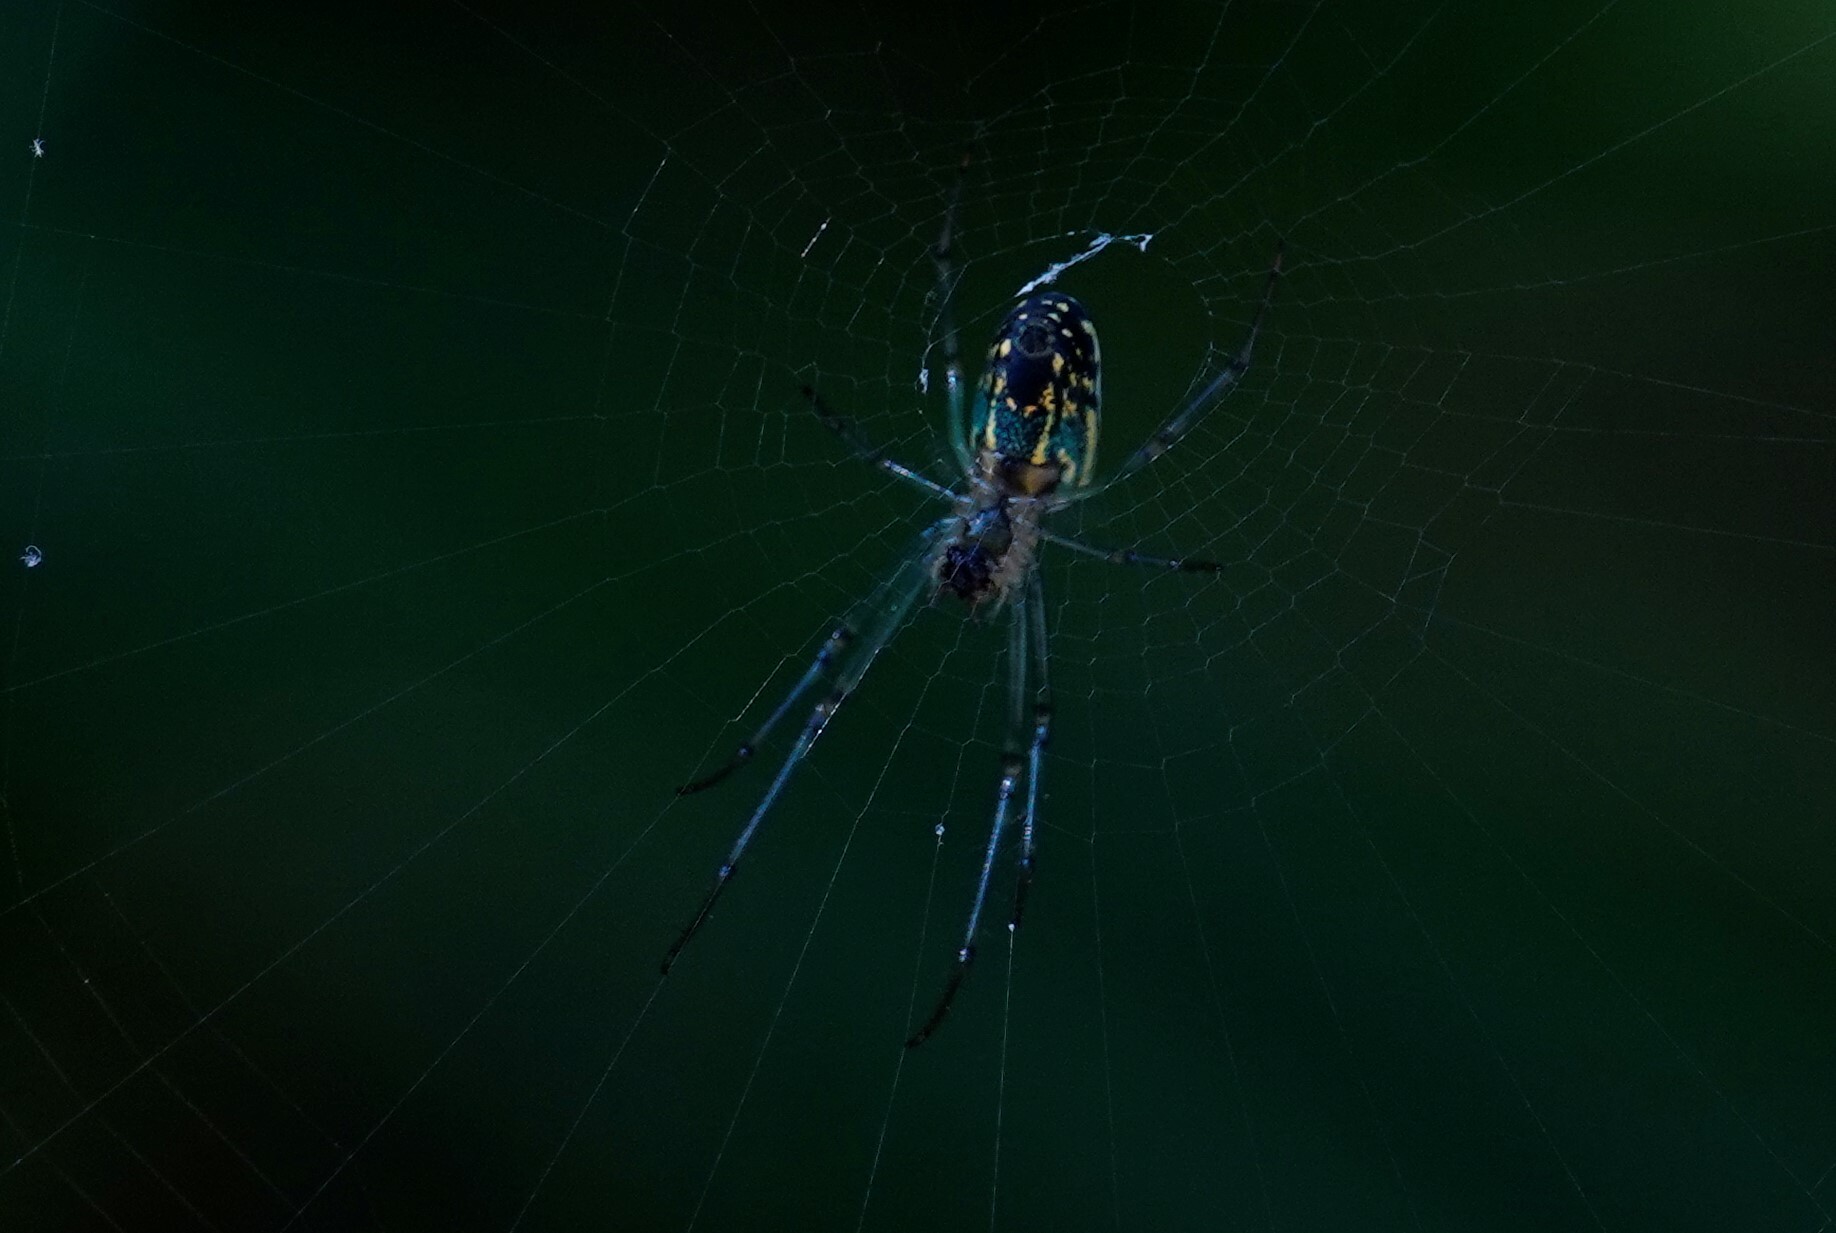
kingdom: Animalia
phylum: Arthropoda
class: Arachnida
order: Araneae
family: Tetragnathidae
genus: Leucauge
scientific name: Leucauge venusta
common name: Longjawed orb weavers
